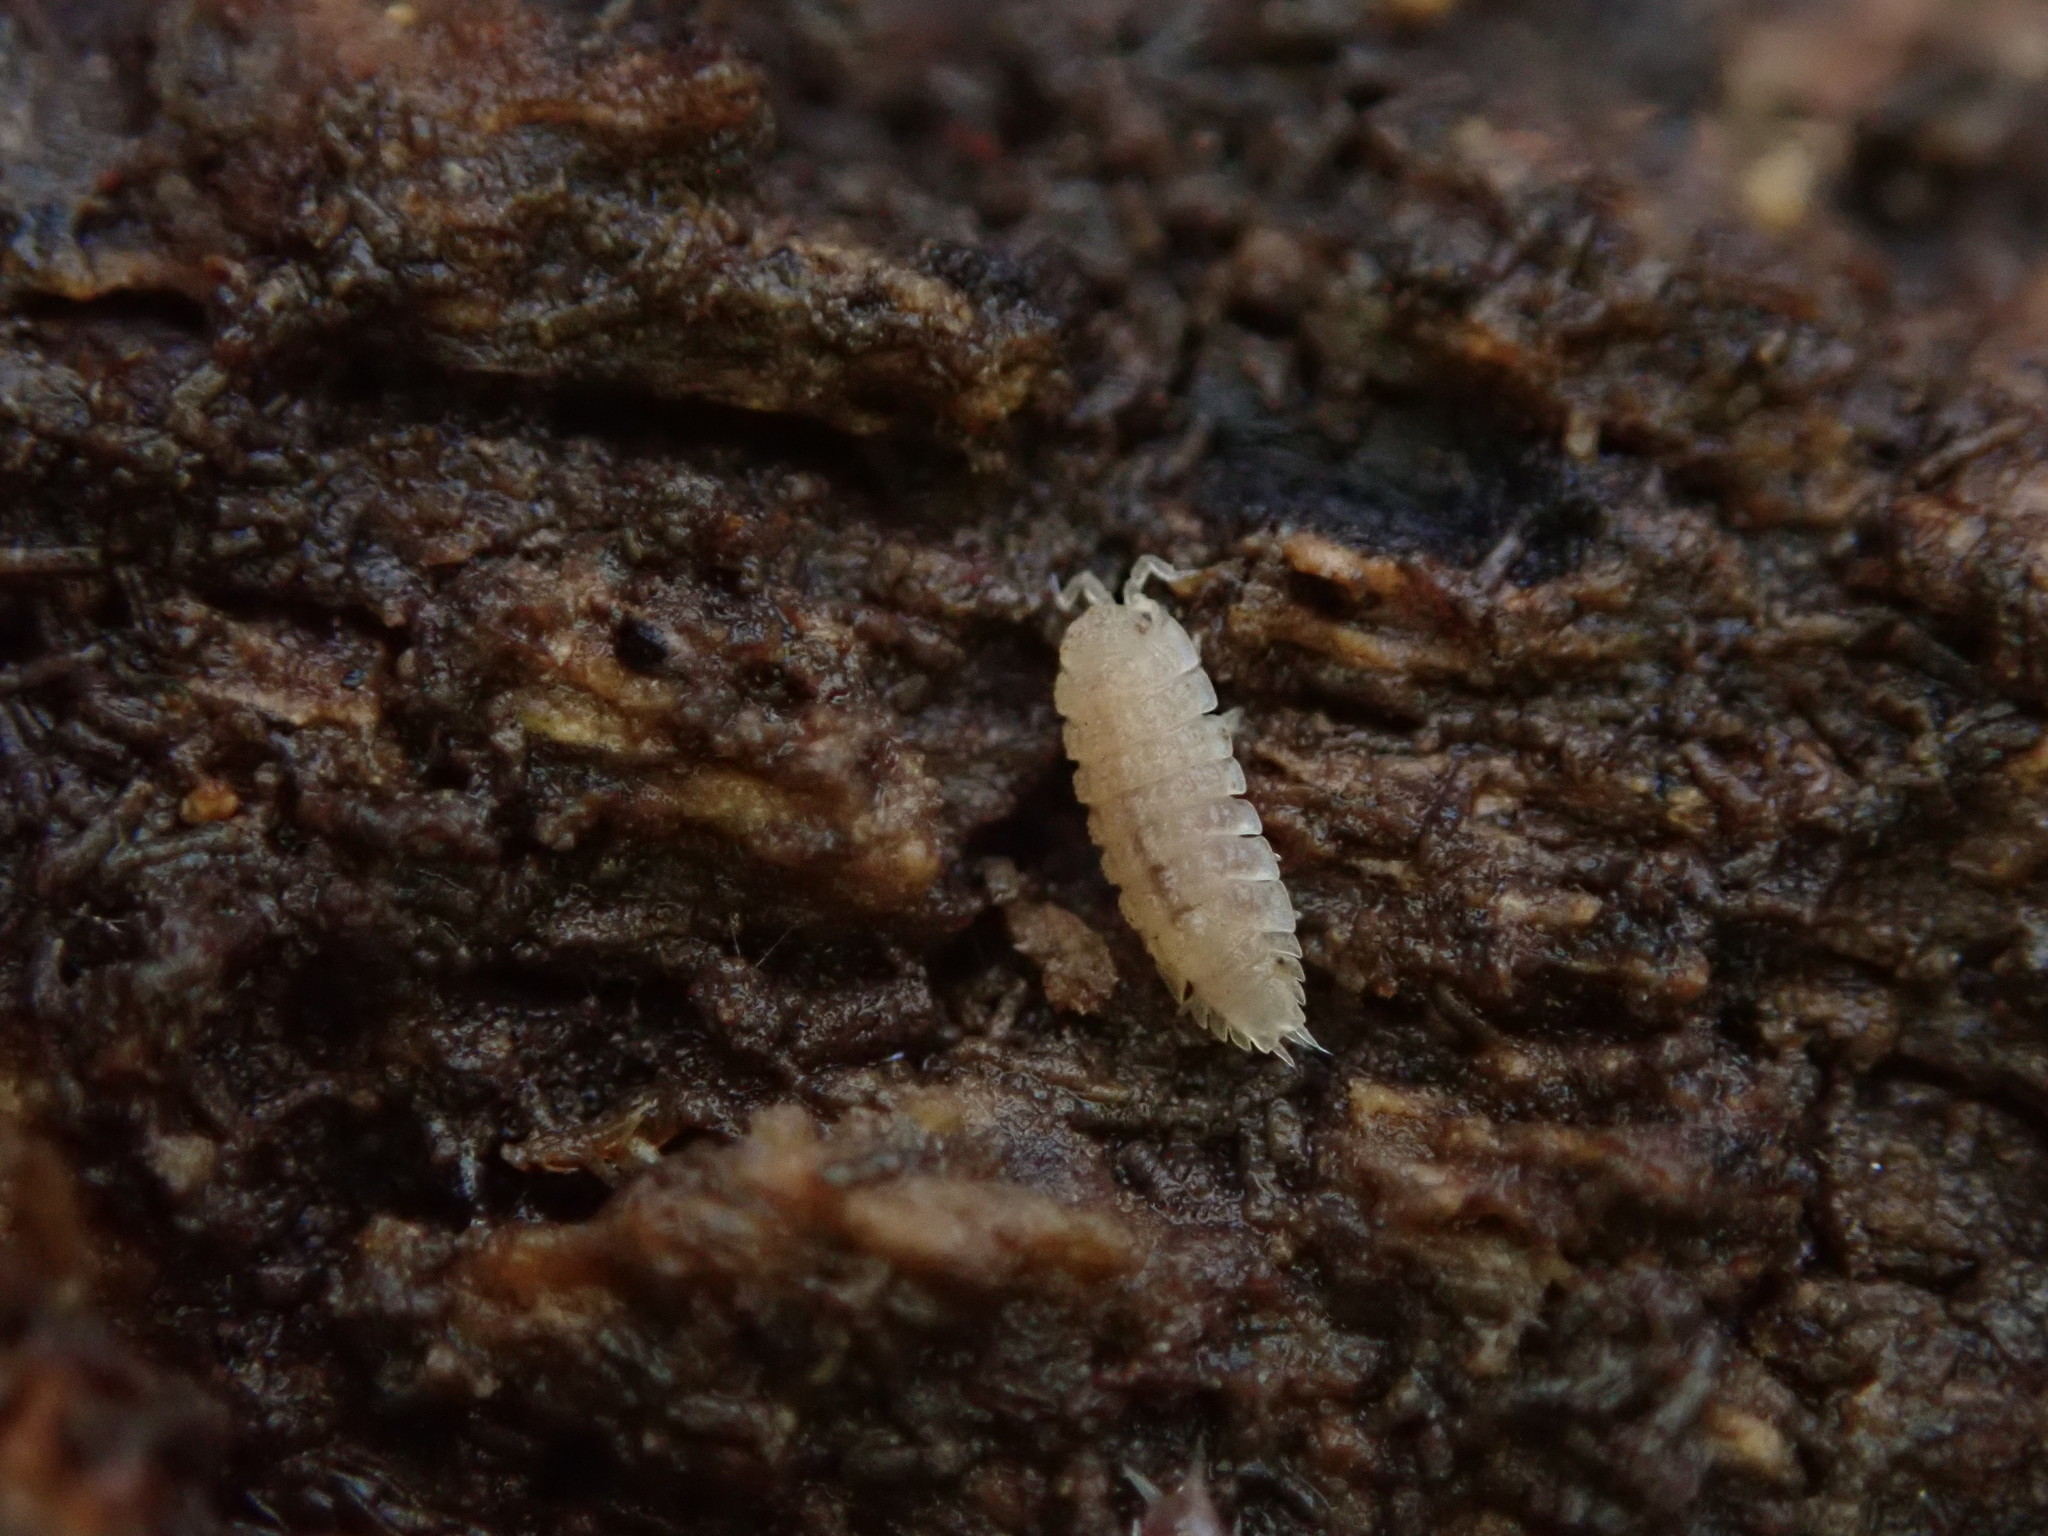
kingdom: Animalia
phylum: Arthropoda
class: Malacostraca
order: Isopoda
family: Trichoniscidae
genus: Haplophthalmus
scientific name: Haplophthalmus danicus
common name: Pillbug
